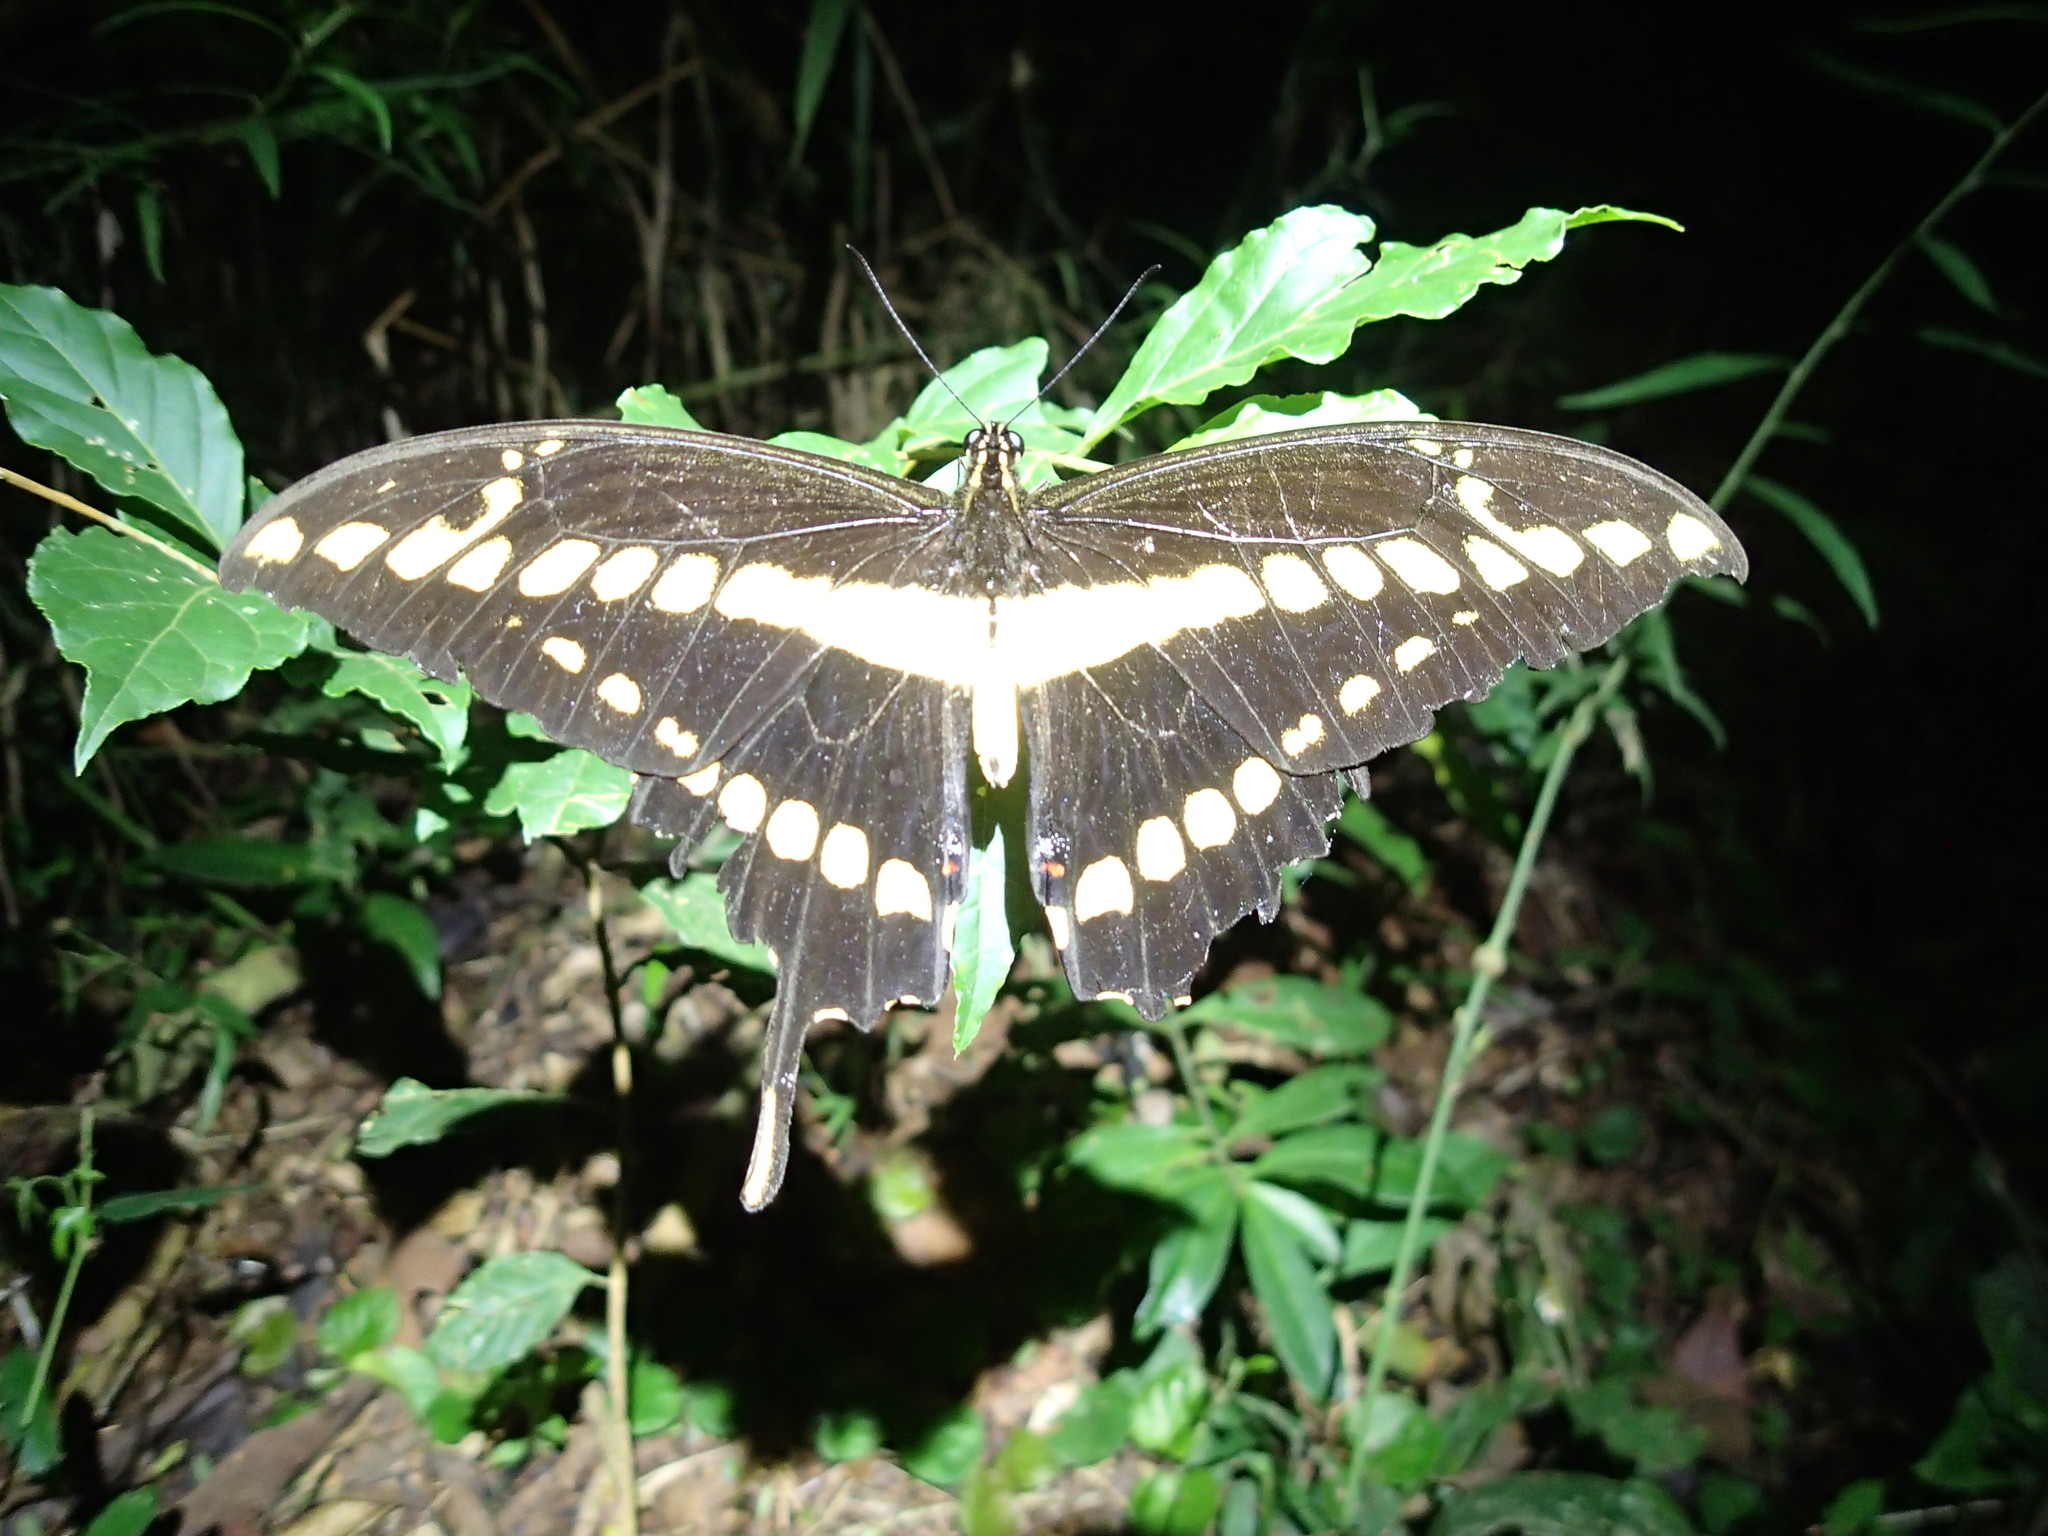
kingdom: Animalia
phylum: Arthropoda
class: Insecta
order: Lepidoptera
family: Papilionidae
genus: Papilio
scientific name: Papilio thoas
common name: King swallowtail
